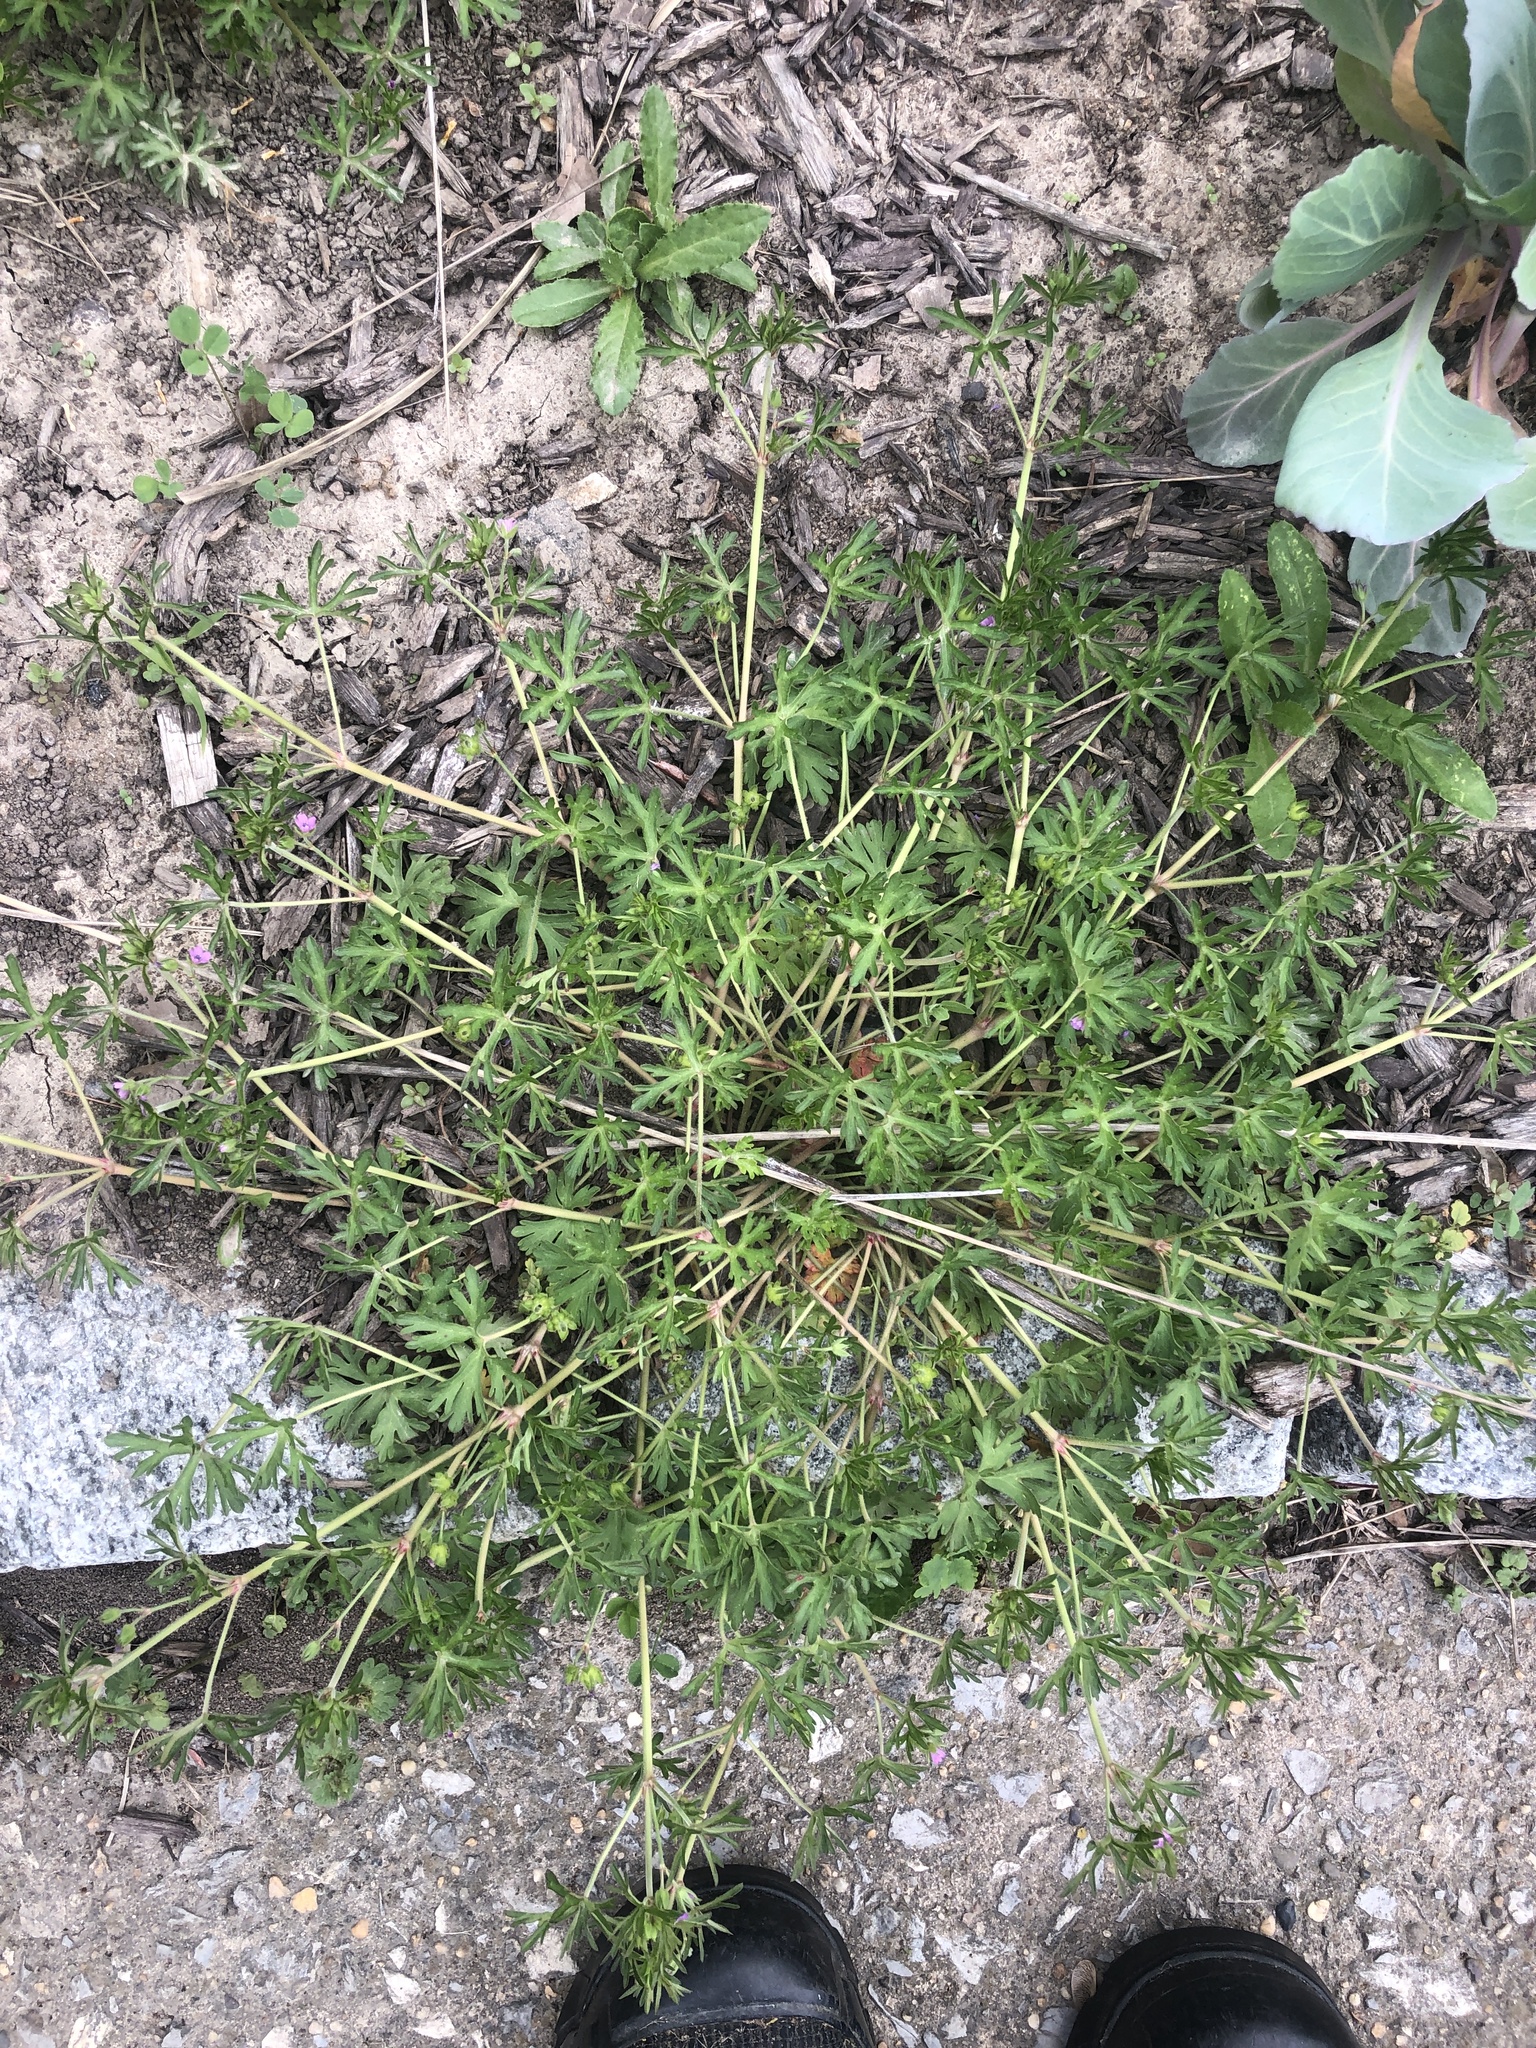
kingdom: Plantae
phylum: Tracheophyta
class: Magnoliopsida
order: Geraniales
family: Geraniaceae
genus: Geranium
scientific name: Geranium dissectum
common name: Cut-leaved crane's-bill
